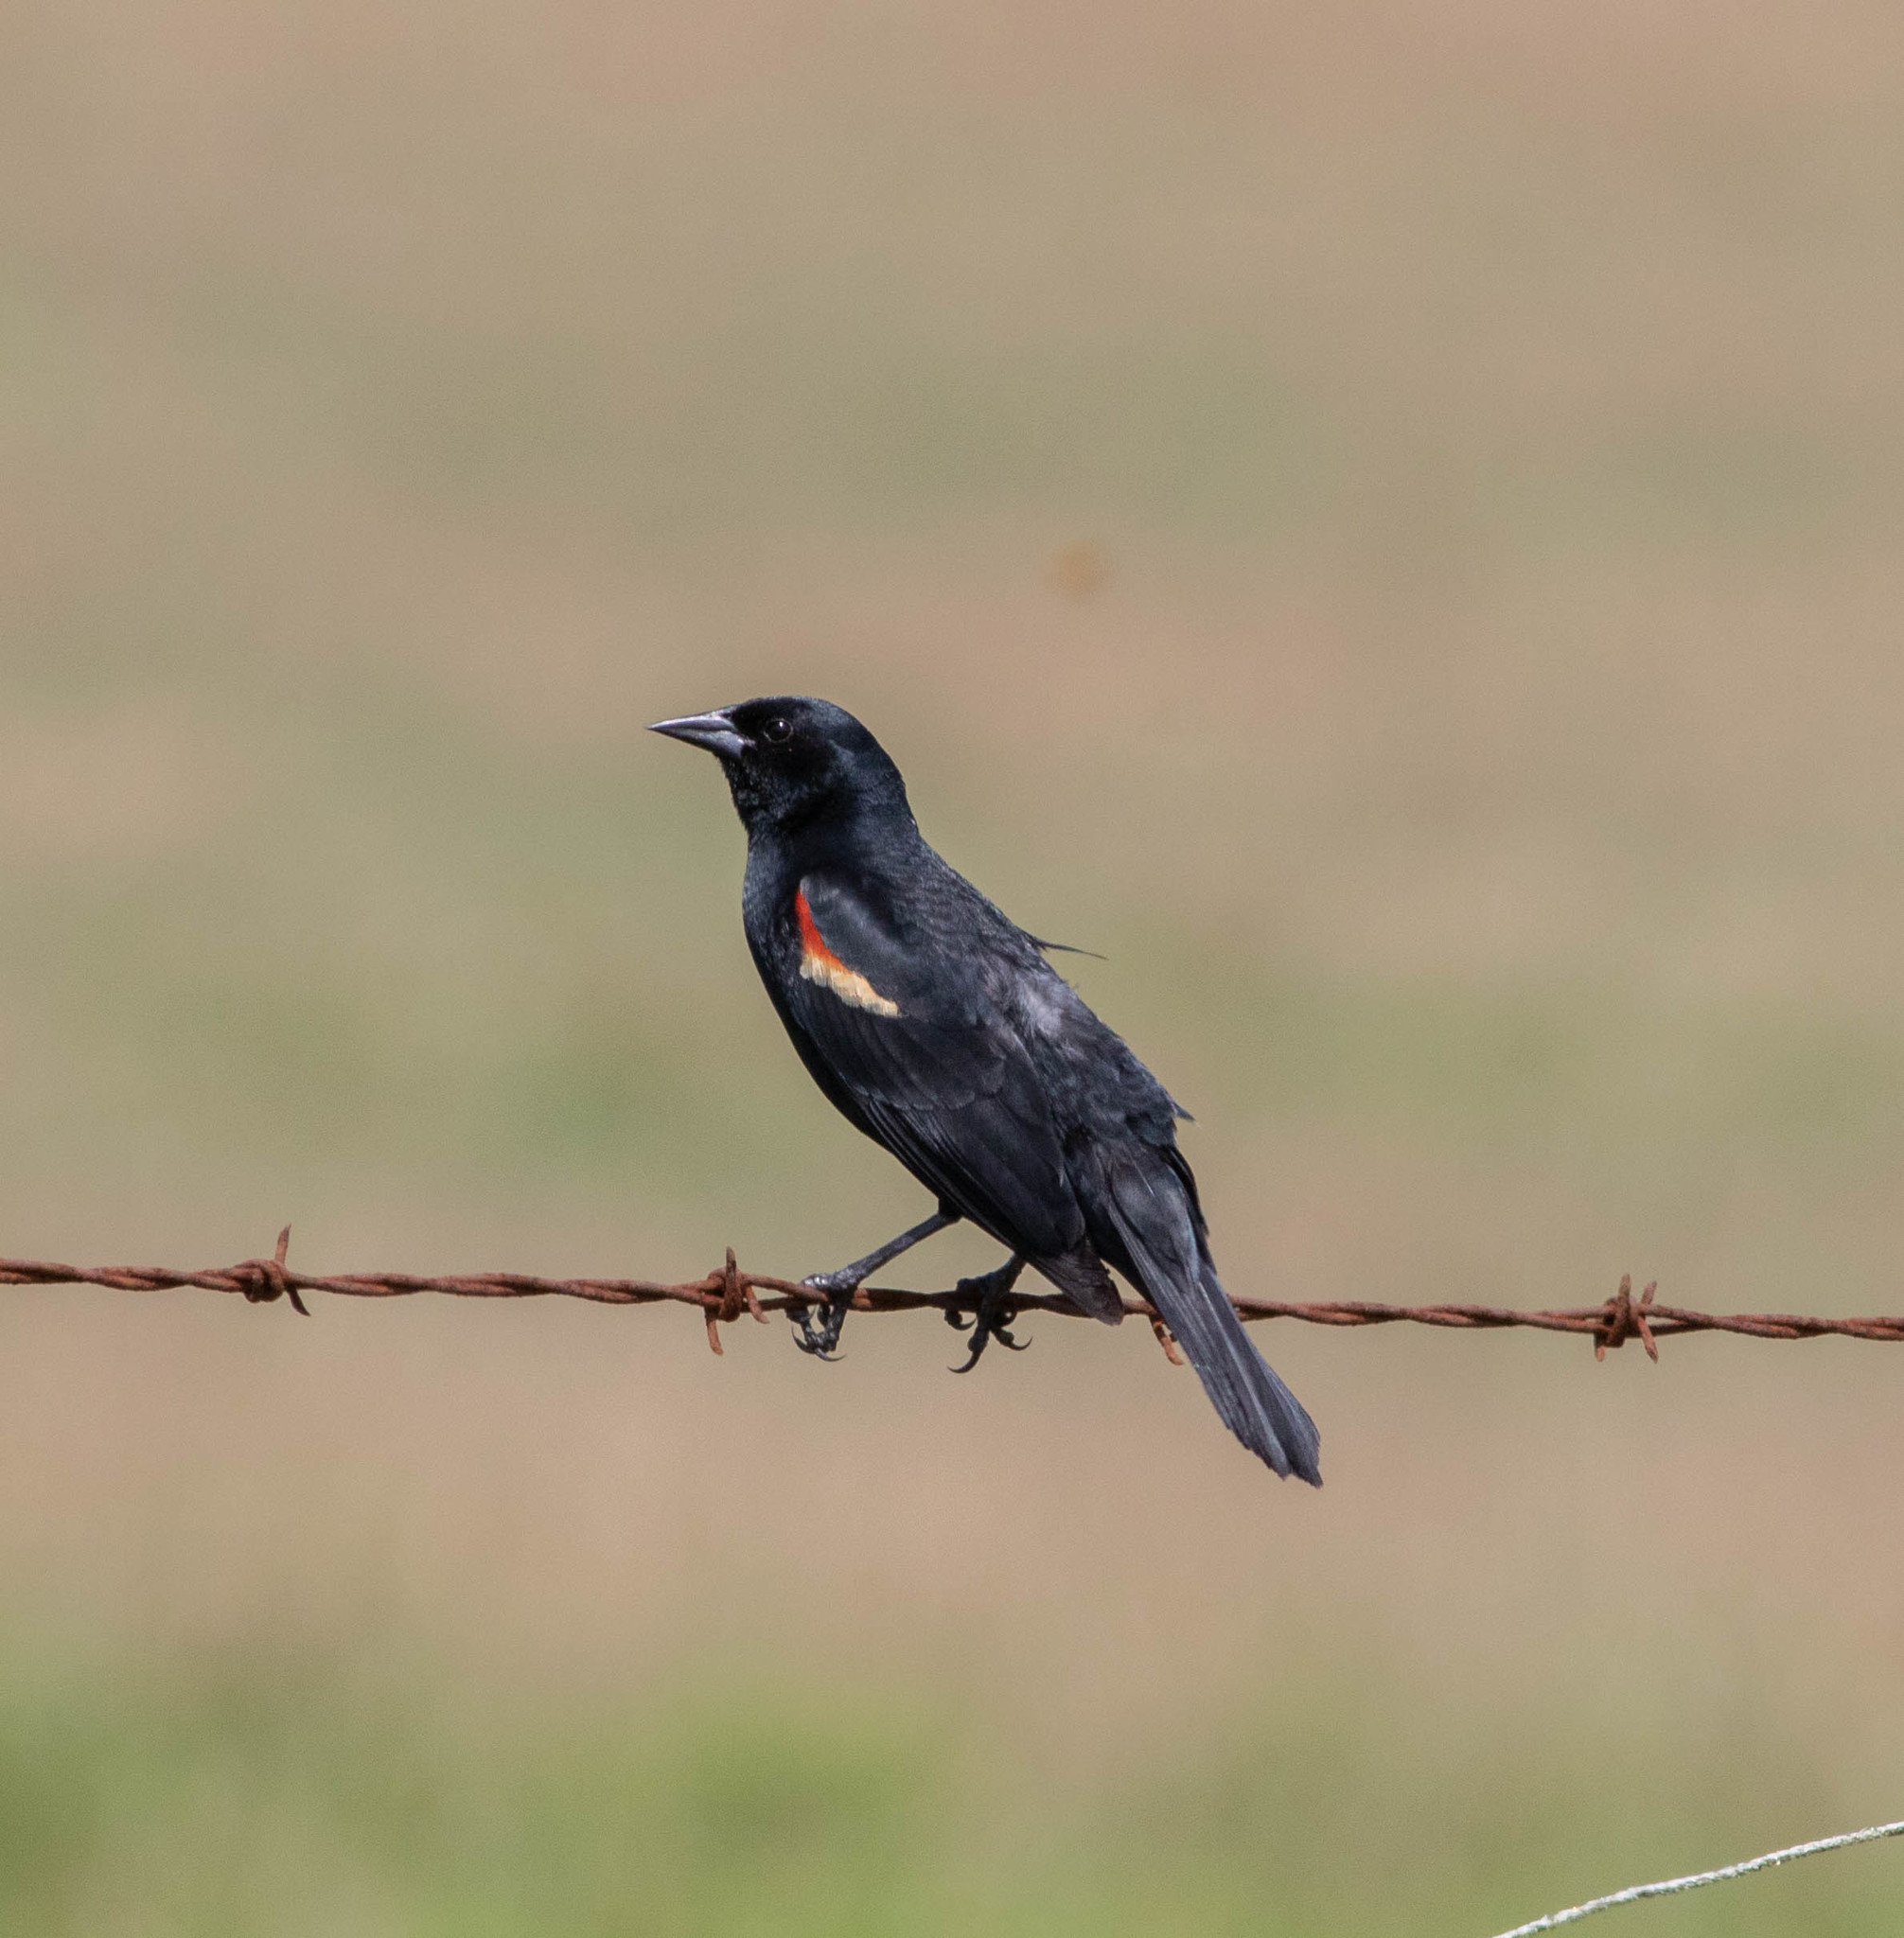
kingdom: Animalia
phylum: Chordata
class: Aves
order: Passeriformes
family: Icteridae
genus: Agelaius
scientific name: Agelaius phoeniceus
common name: Red-winged blackbird
